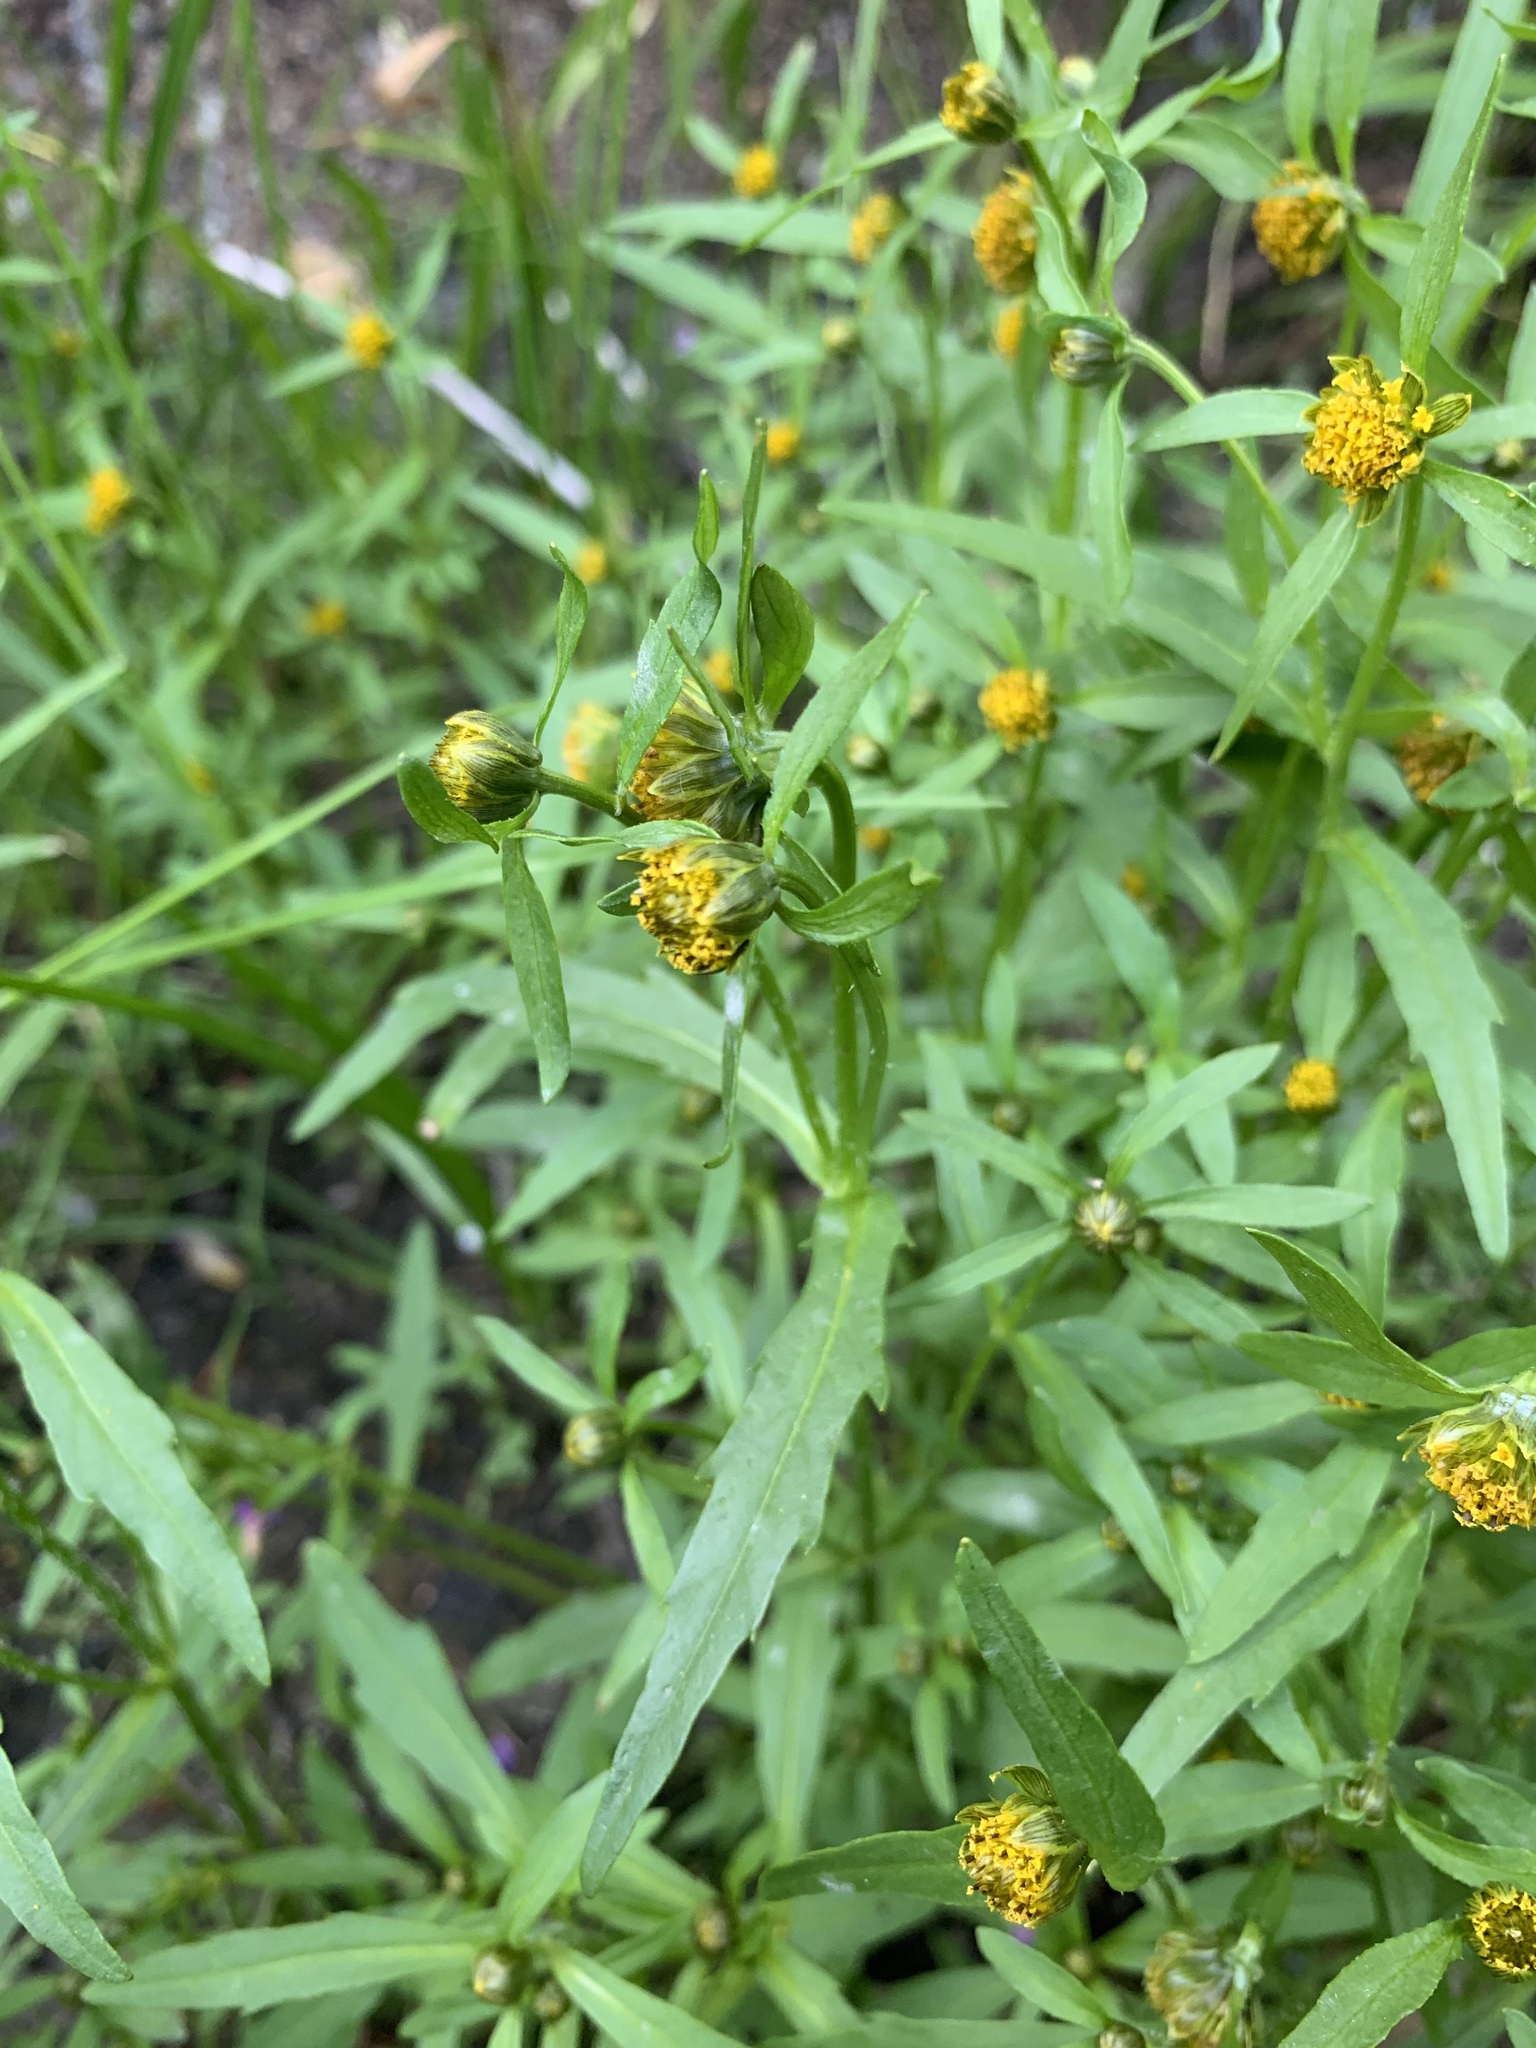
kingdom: Plantae
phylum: Tracheophyta
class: Magnoliopsida
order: Asterales
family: Asteraceae
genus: Bidens
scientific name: Bidens cernua
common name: Nodding bur-marigold
